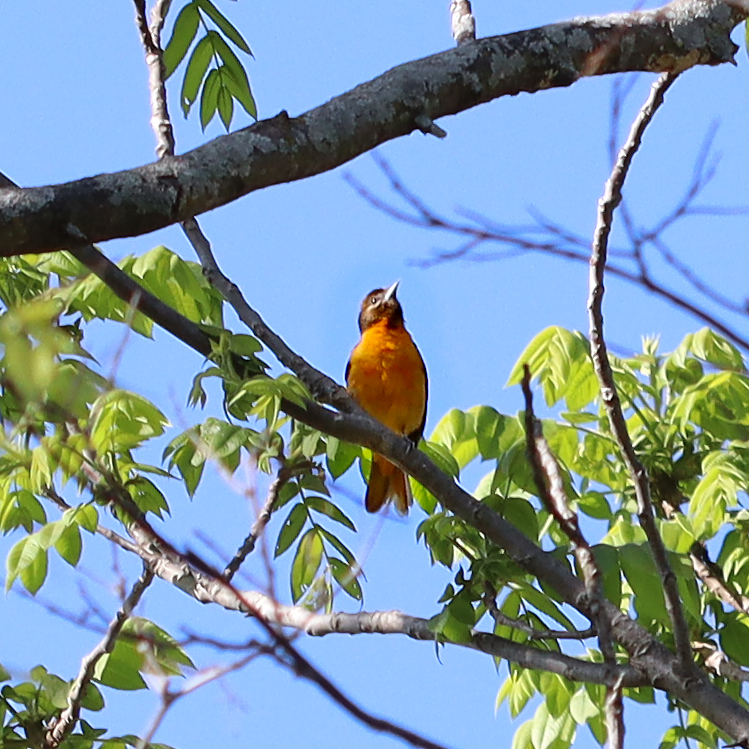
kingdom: Animalia
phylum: Chordata
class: Aves
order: Passeriformes
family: Icteridae
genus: Icterus
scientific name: Icterus galbula
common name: Baltimore oriole
